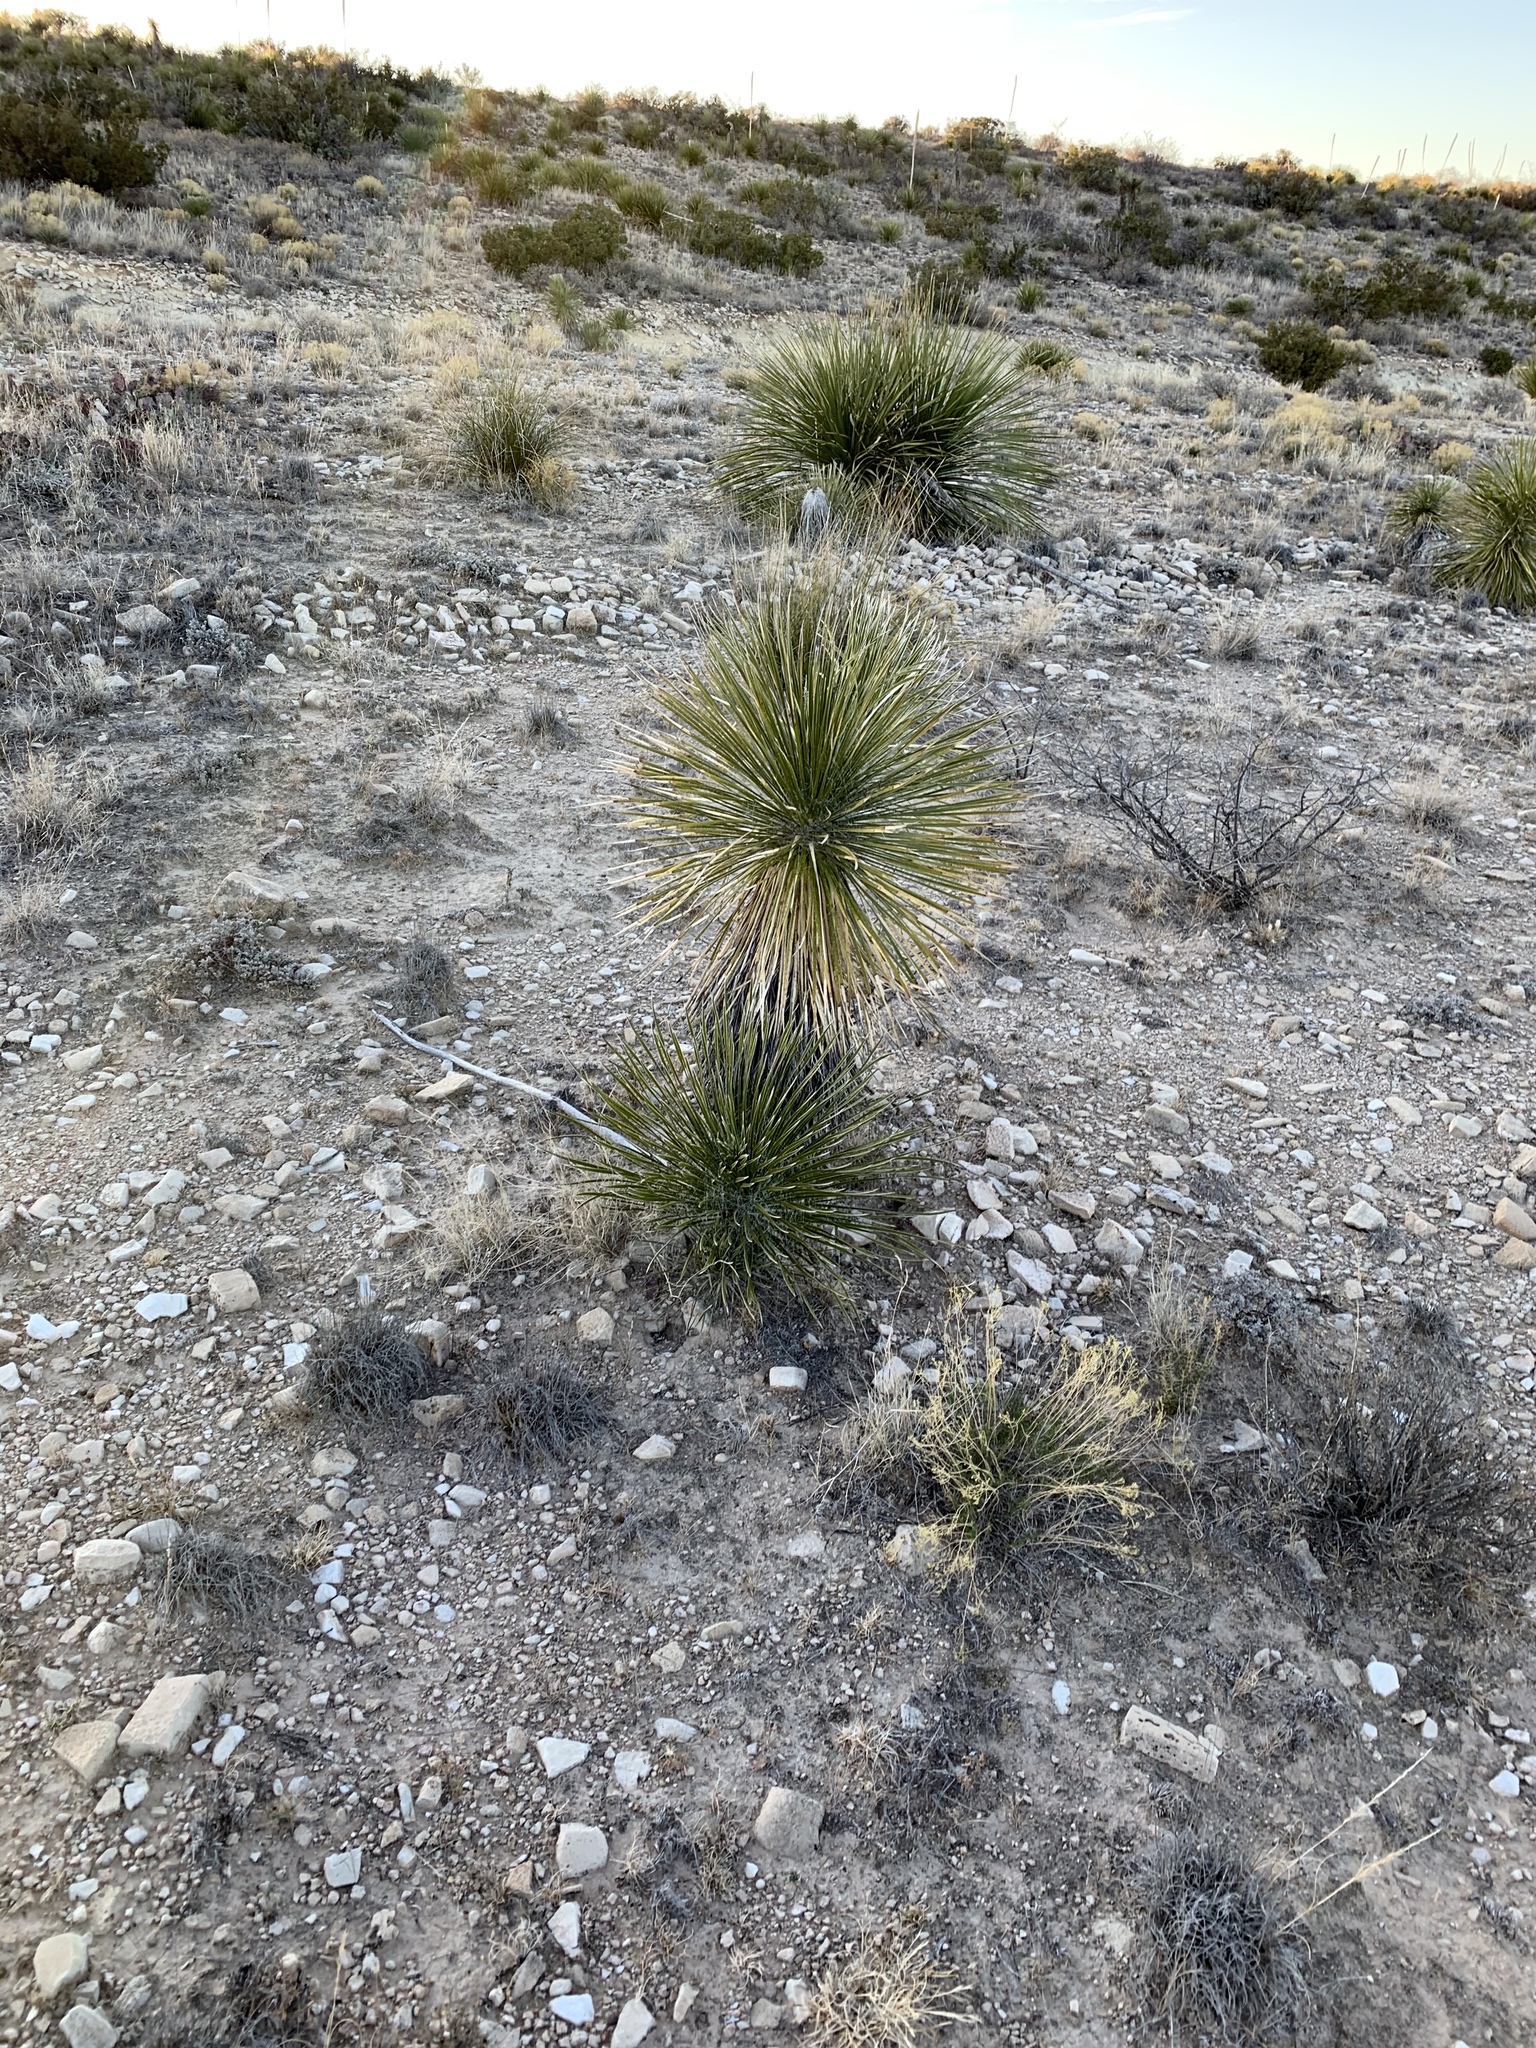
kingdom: Plantae
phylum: Tracheophyta
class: Liliopsida
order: Asparagales
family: Asparagaceae
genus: Yucca
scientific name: Yucca elata
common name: Palmella
